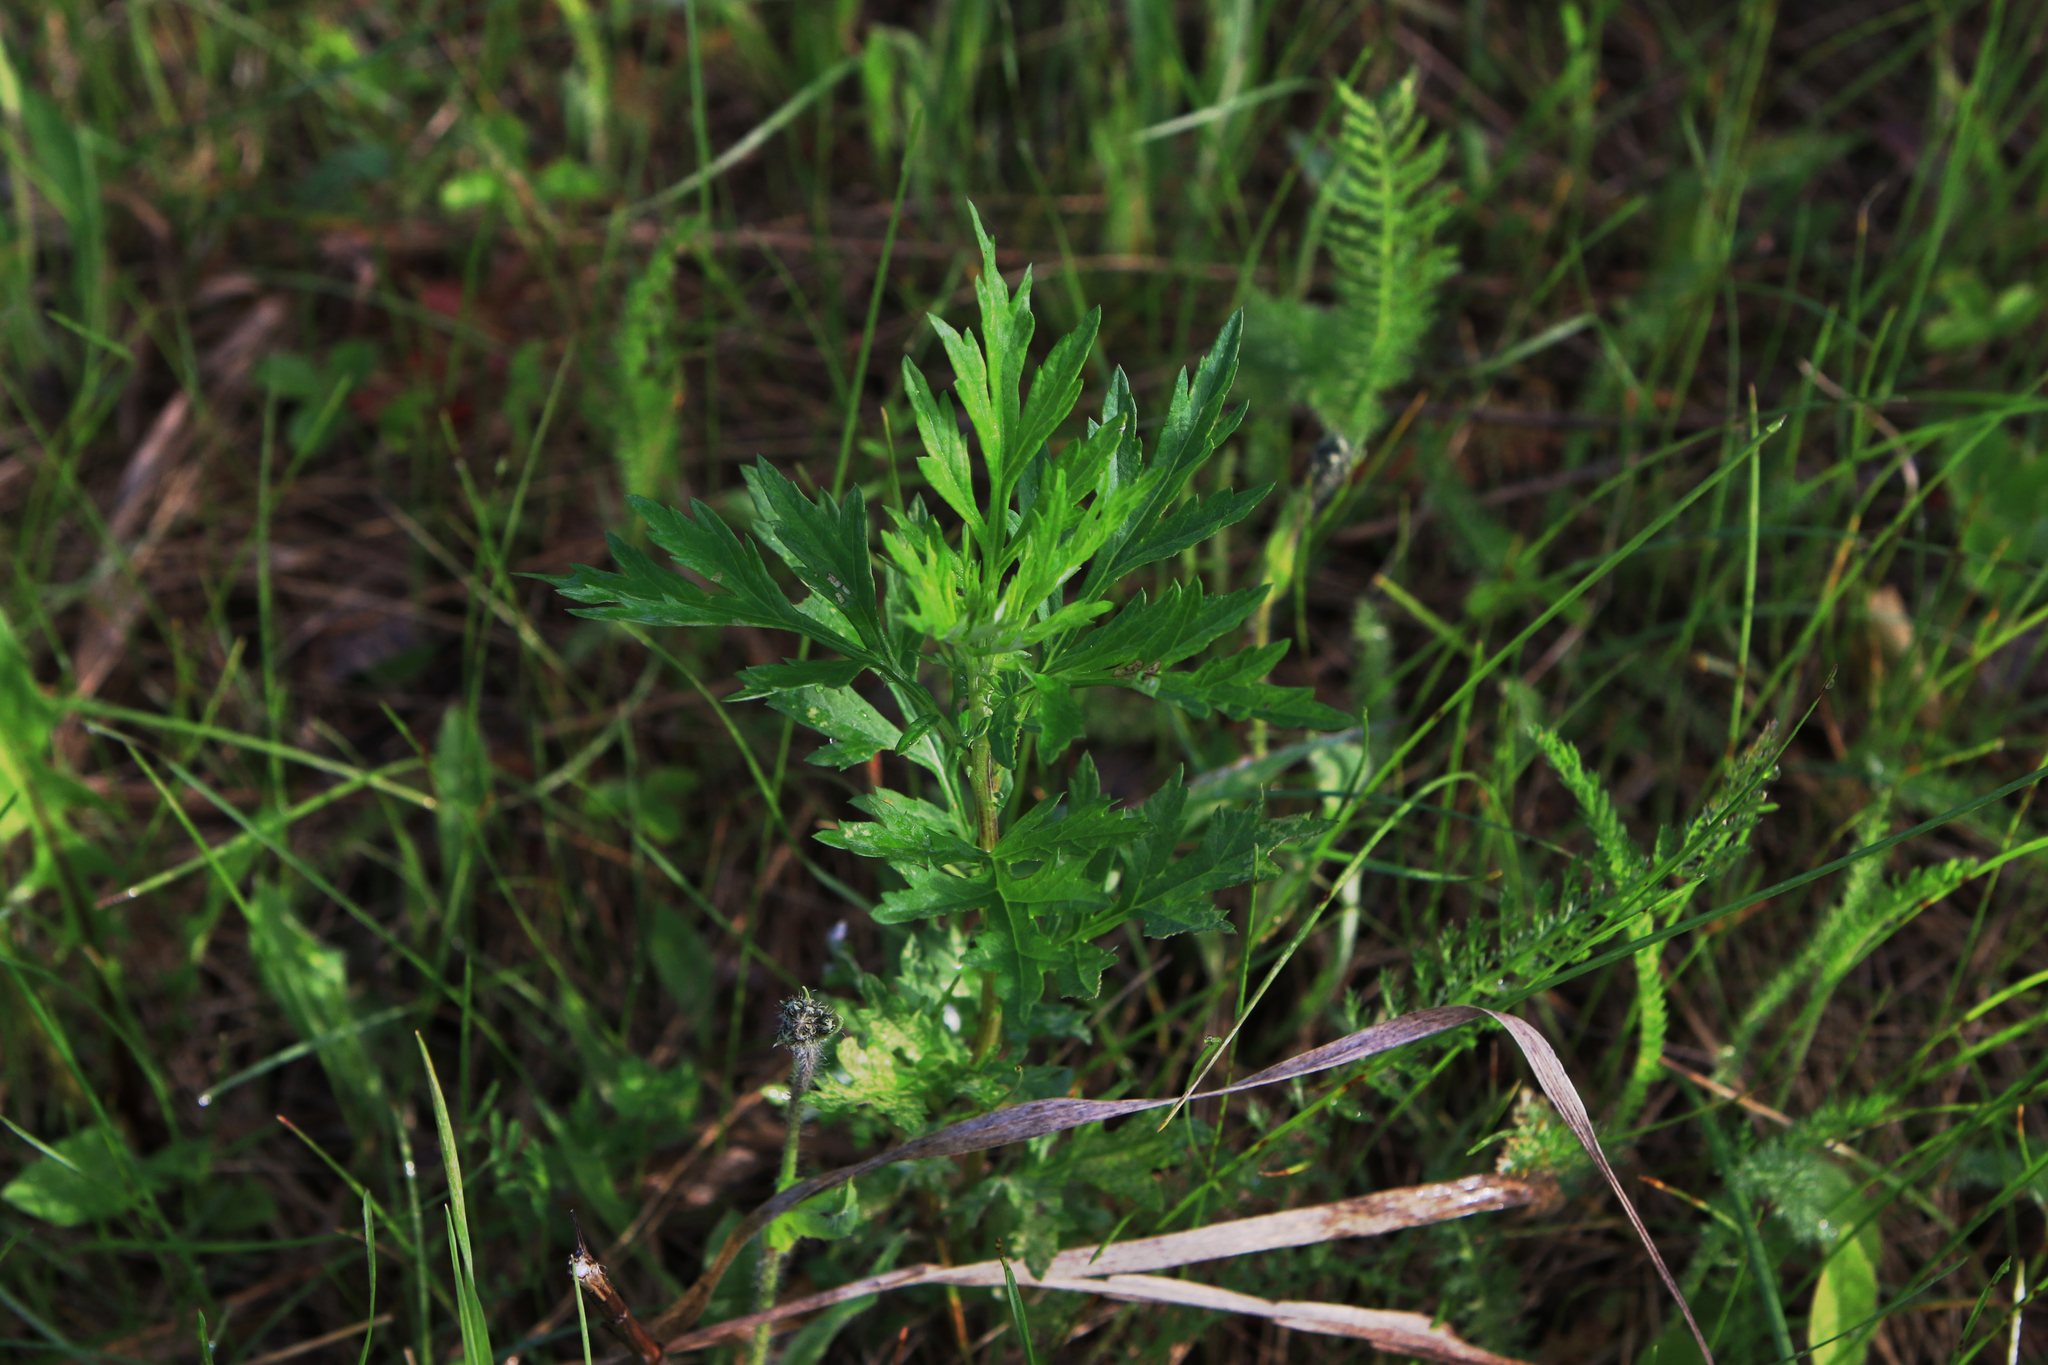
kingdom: Plantae
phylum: Tracheophyta
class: Magnoliopsida
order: Asterales
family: Asteraceae
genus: Artemisia
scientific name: Artemisia vulgaris
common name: Mugwort
